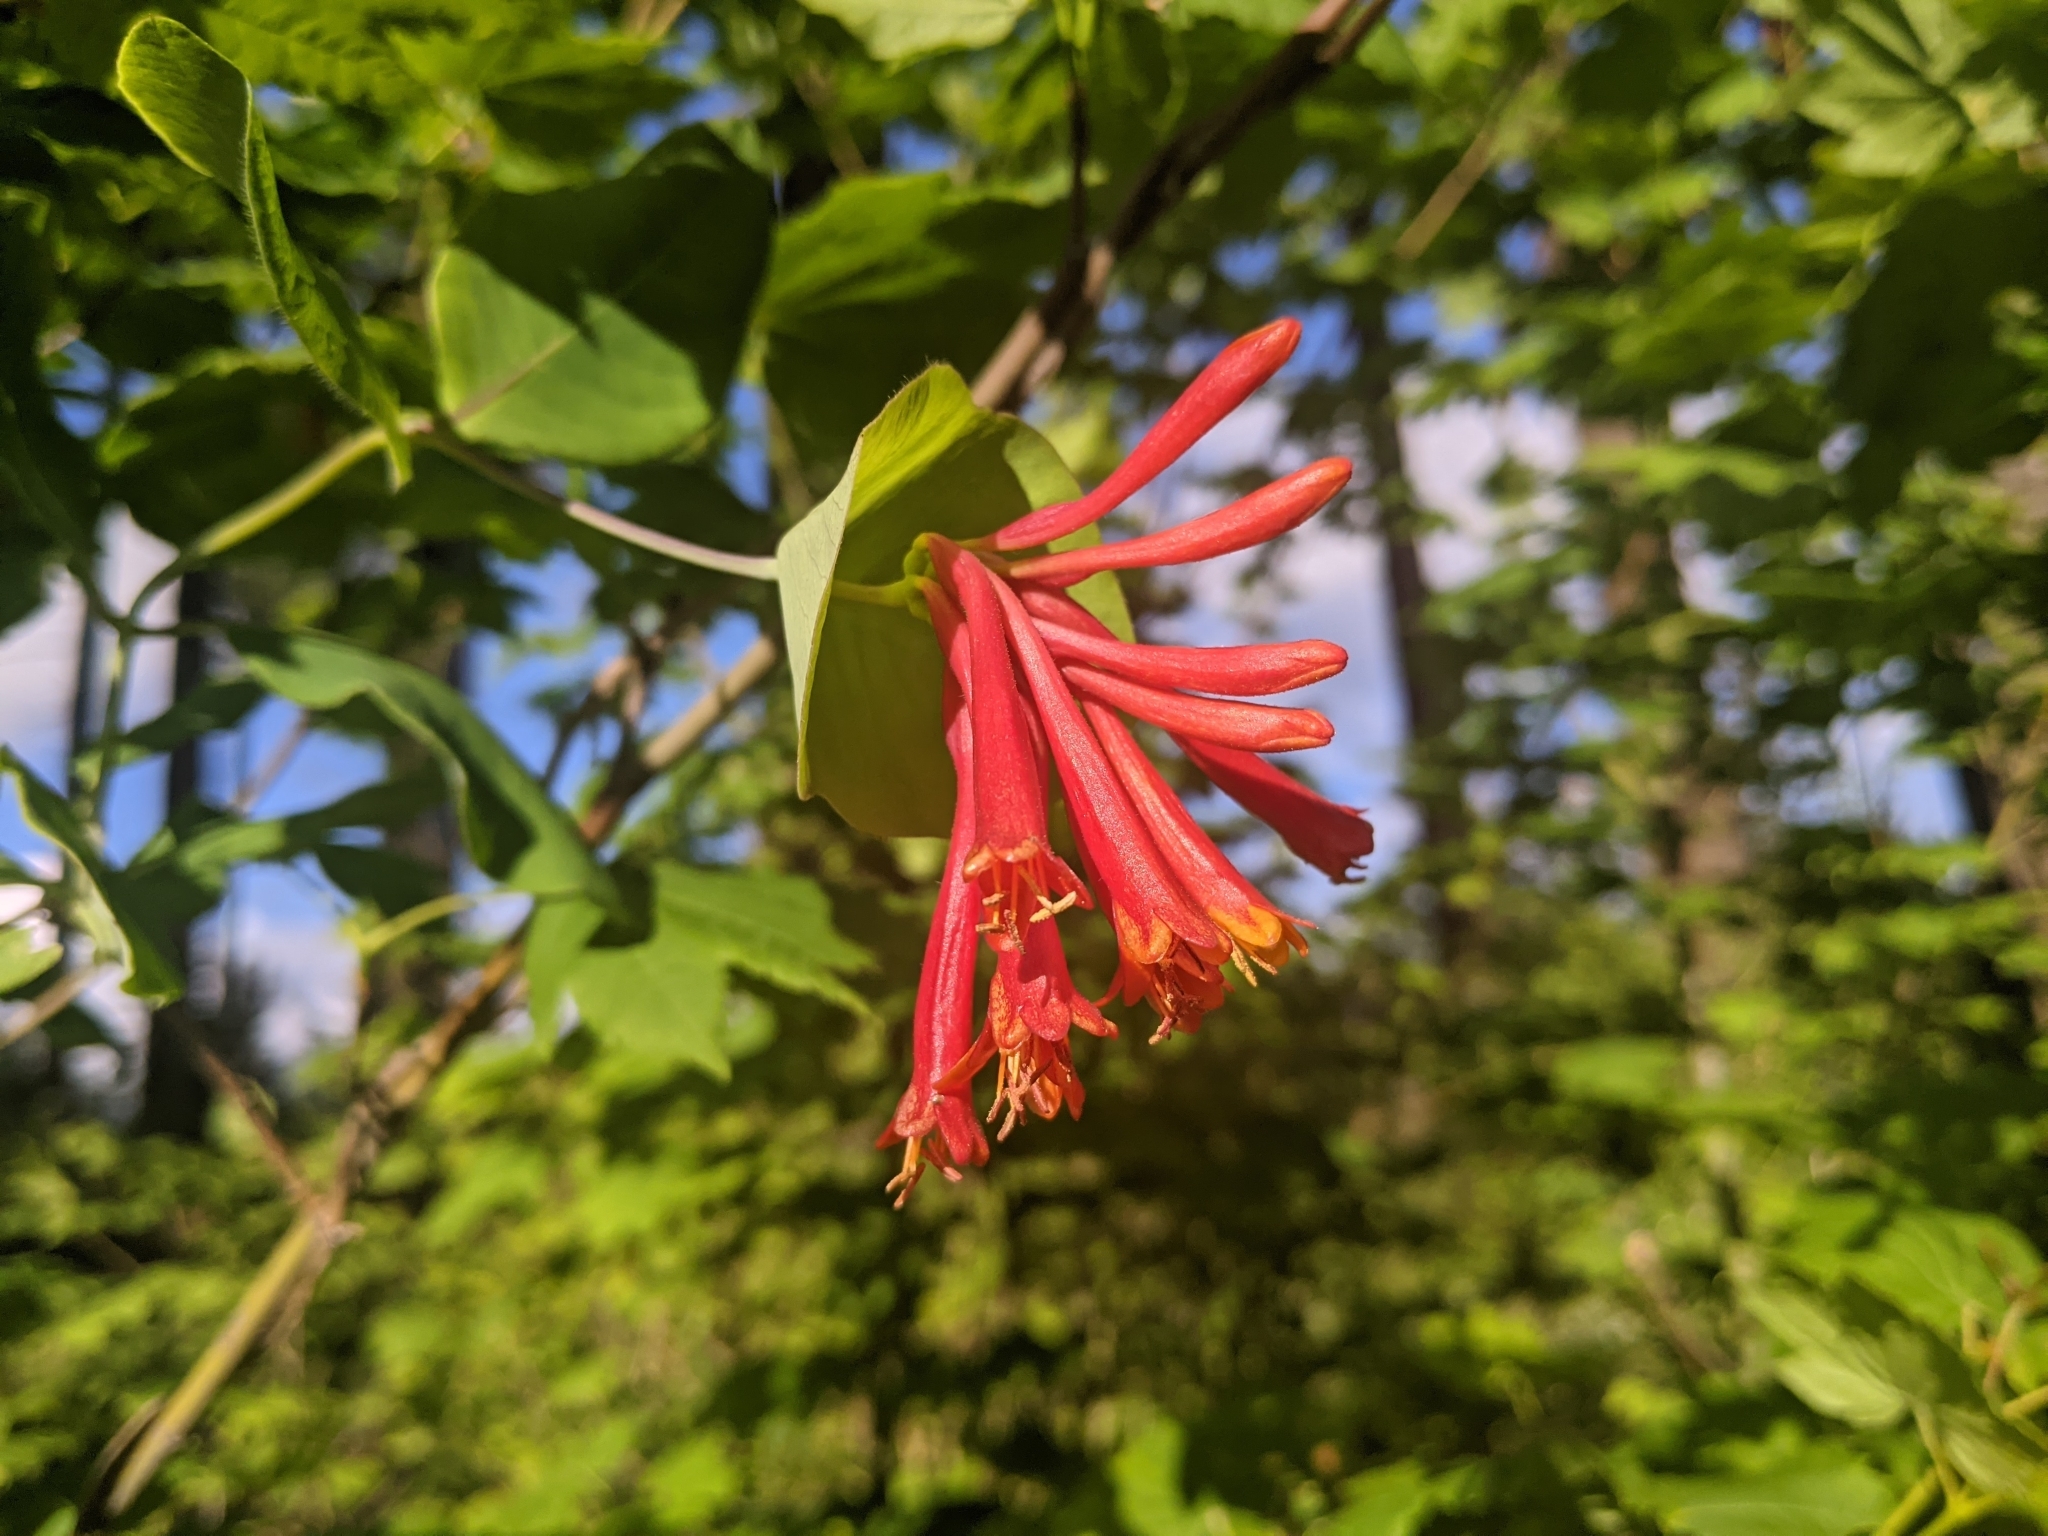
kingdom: Plantae
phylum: Tracheophyta
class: Magnoliopsida
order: Dipsacales
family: Caprifoliaceae
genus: Lonicera
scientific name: Lonicera ciliosa
